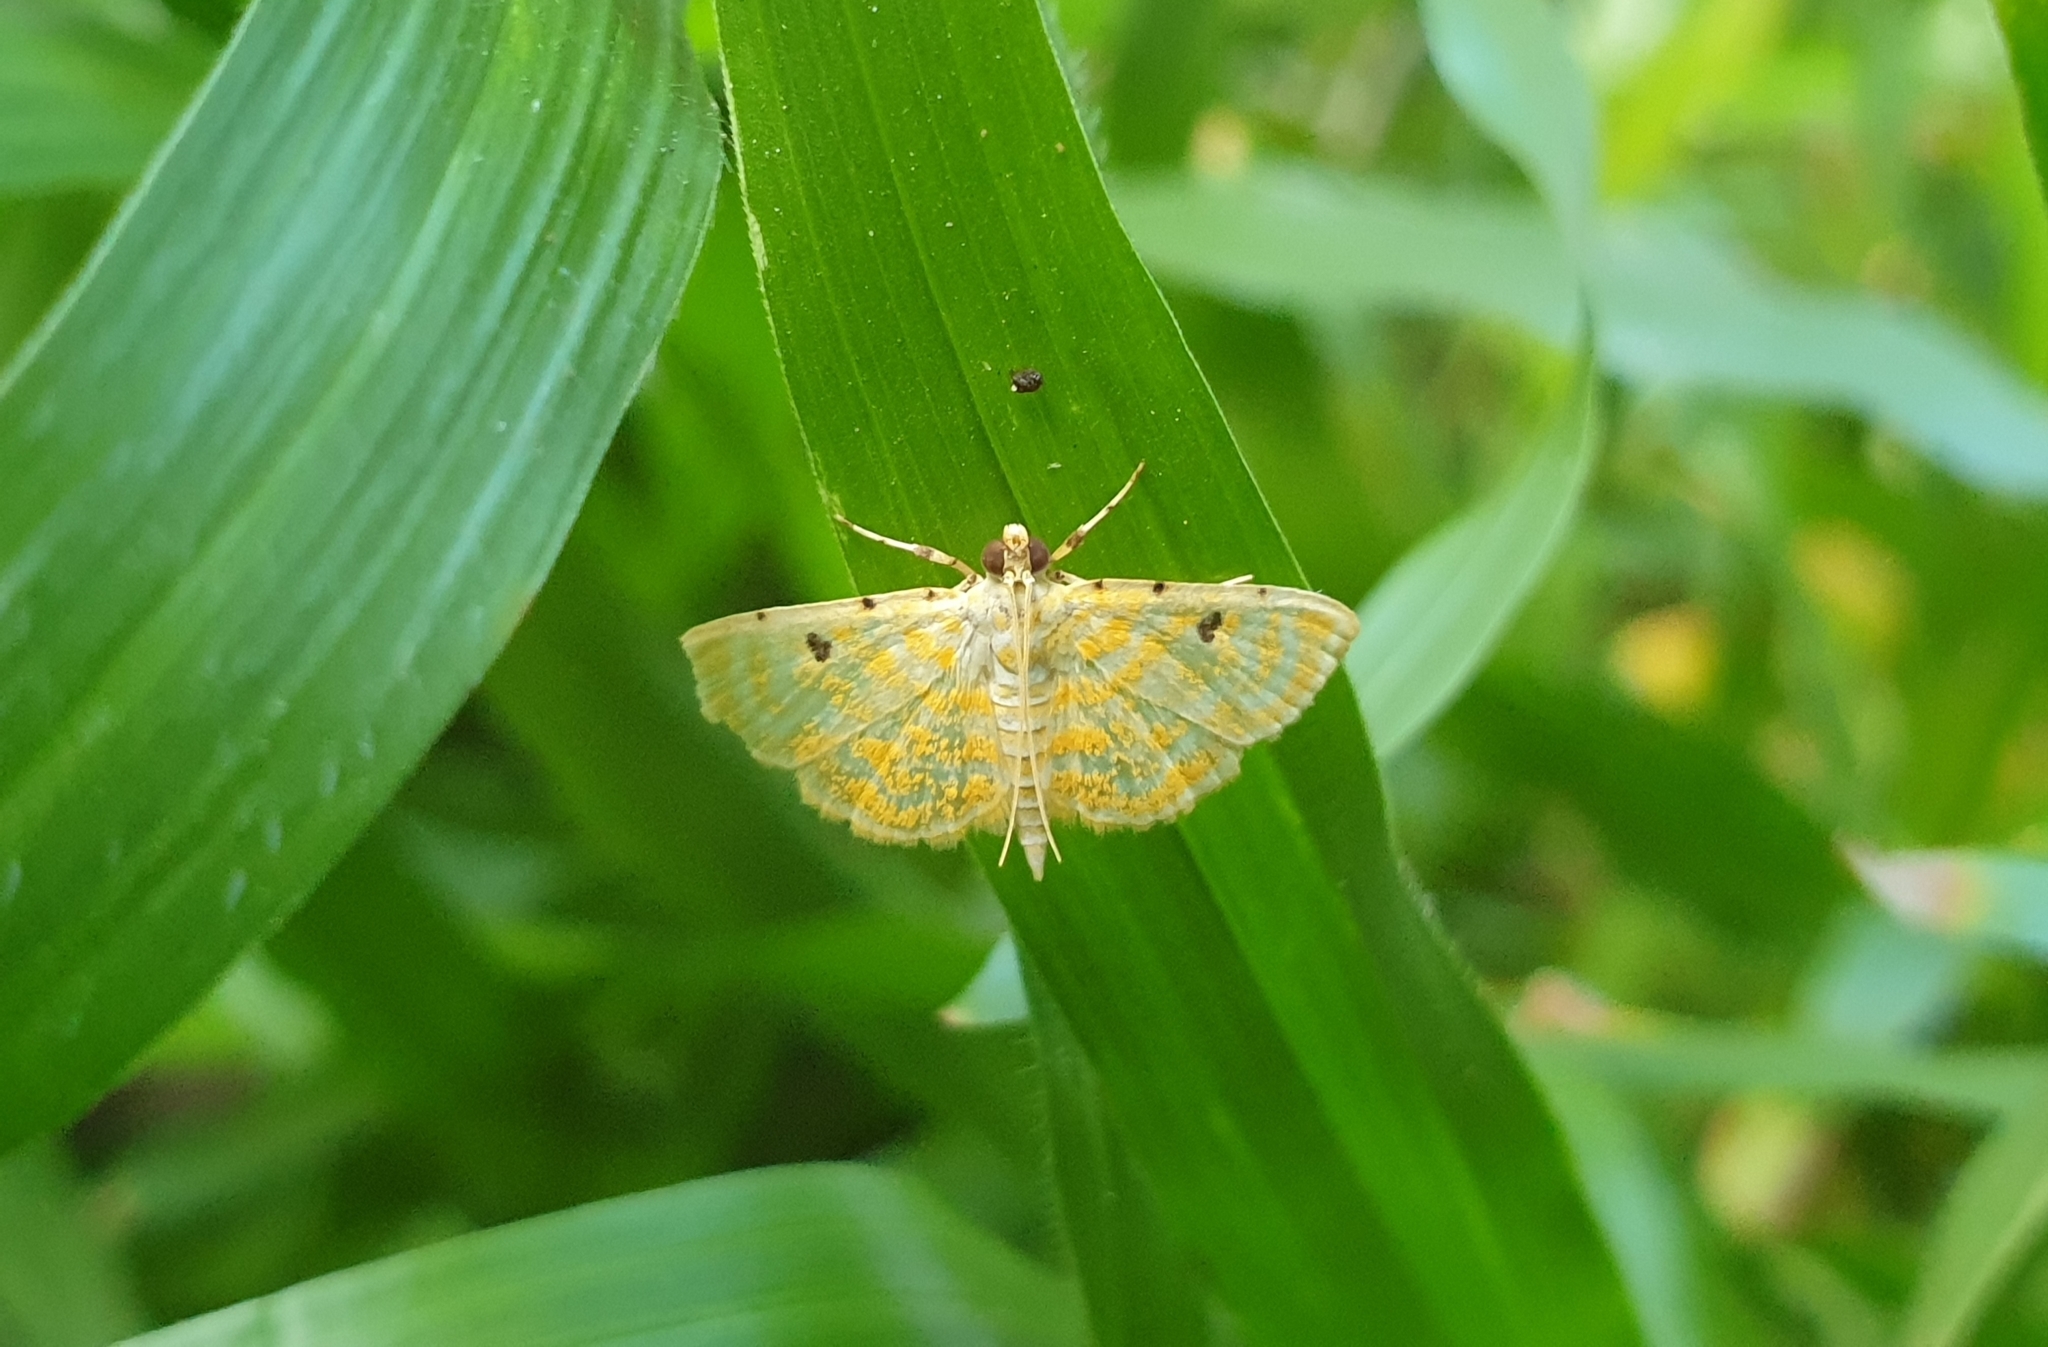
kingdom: Animalia
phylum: Arthropoda
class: Insecta
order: Lepidoptera
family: Crambidae
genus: Notarcha
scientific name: Notarcha aurolinealis
